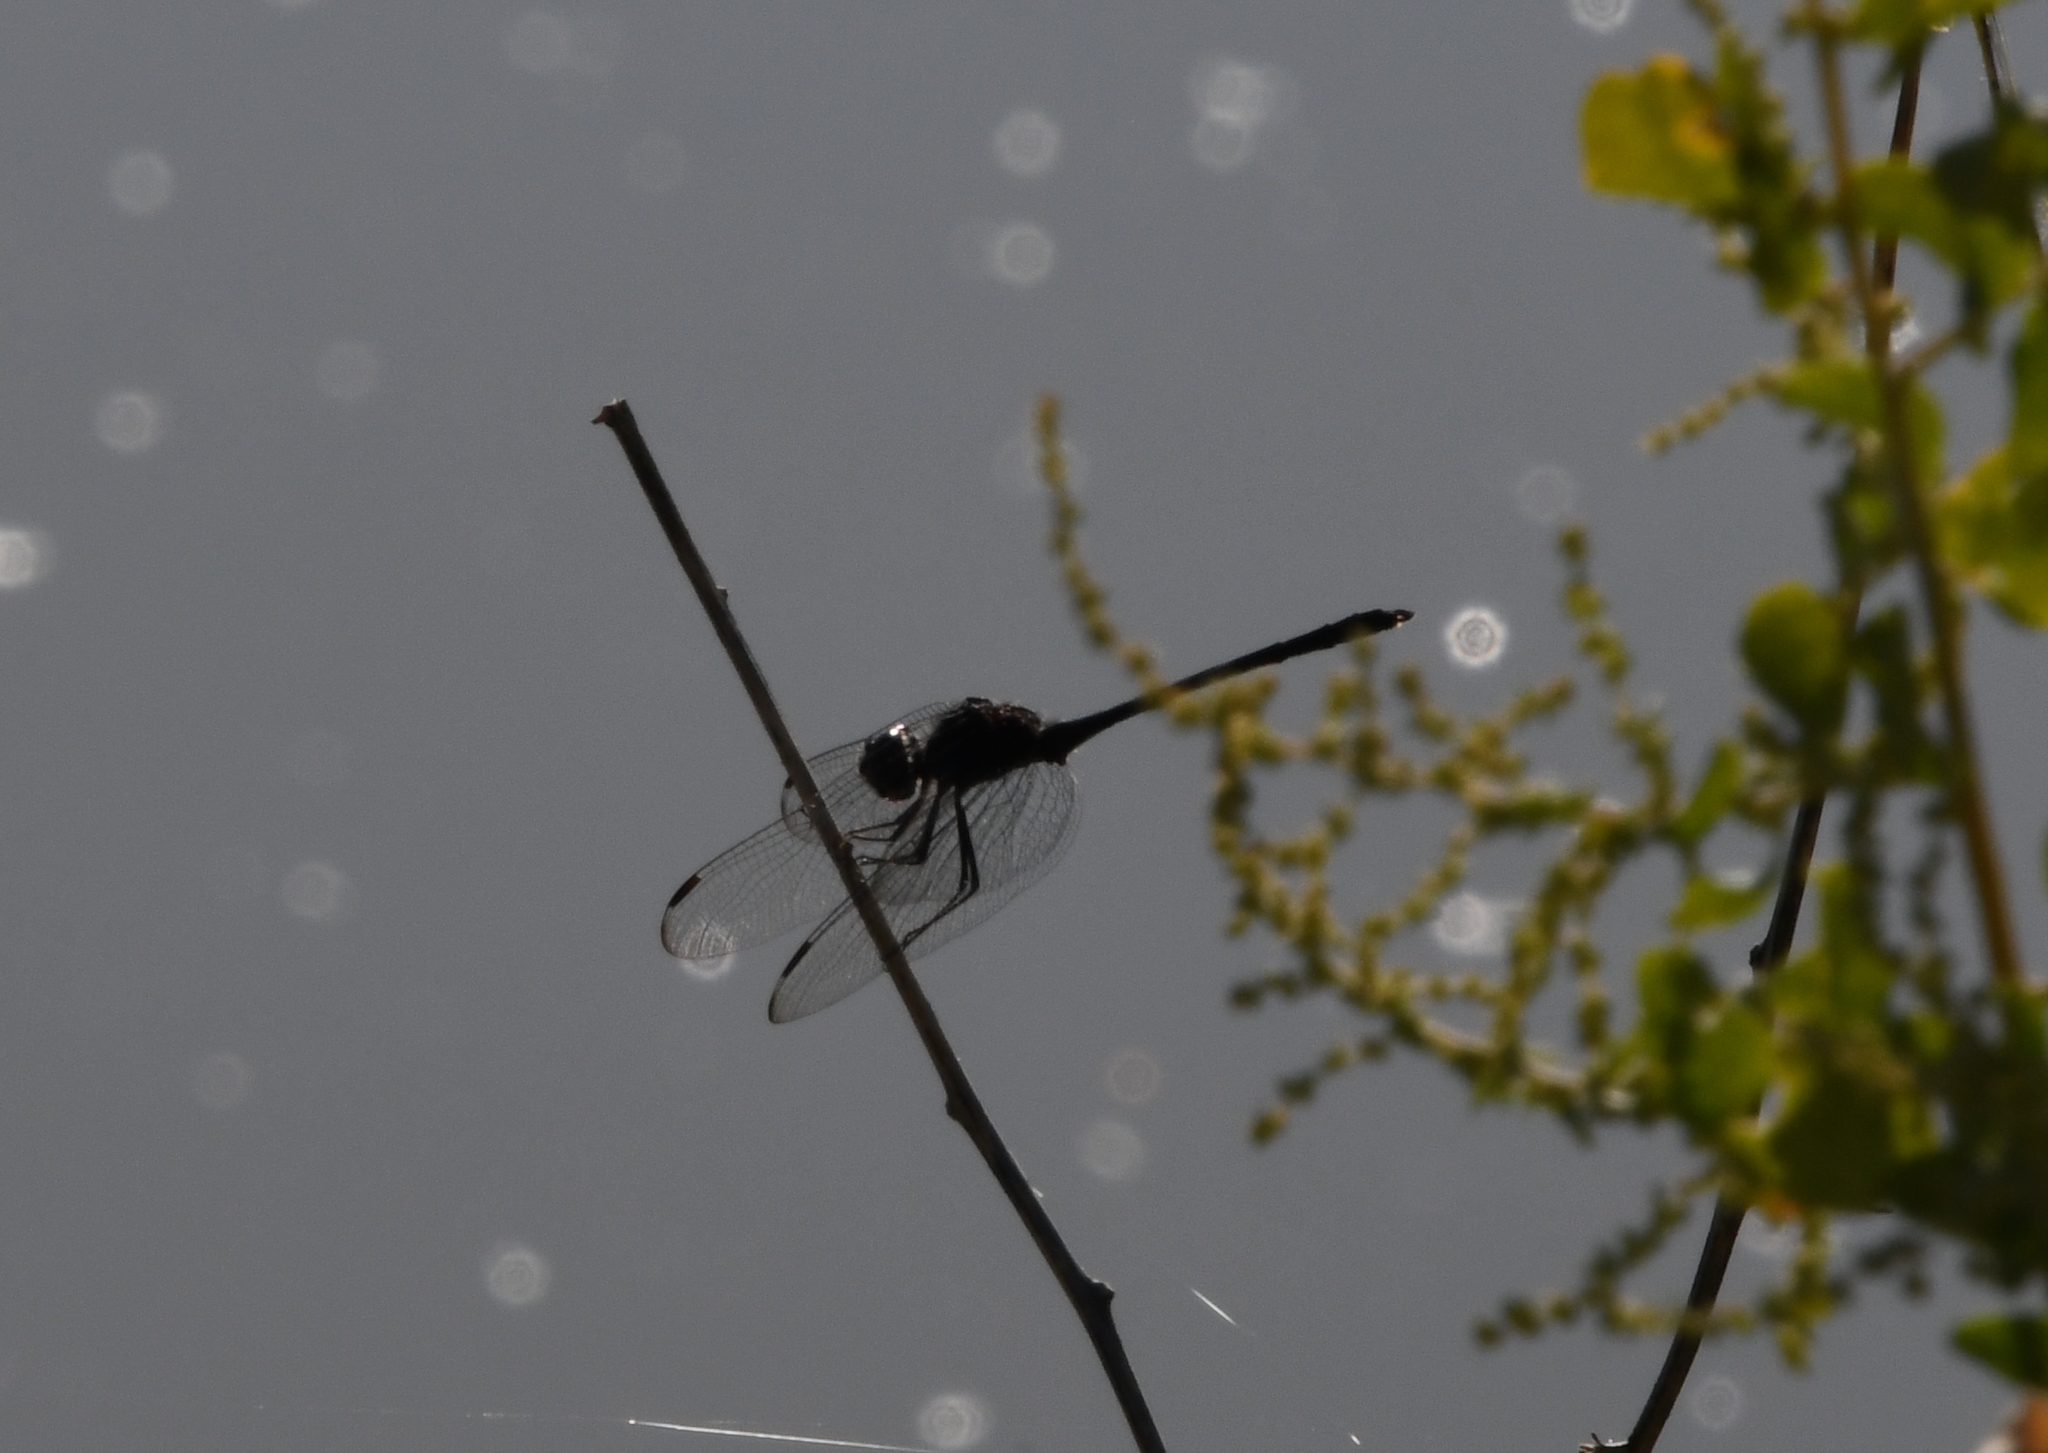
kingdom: Animalia
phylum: Arthropoda
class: Insecta
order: Odonata
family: Libellulidae
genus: Dythemis
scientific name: Dythemis nigrescens
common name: Black setwing
